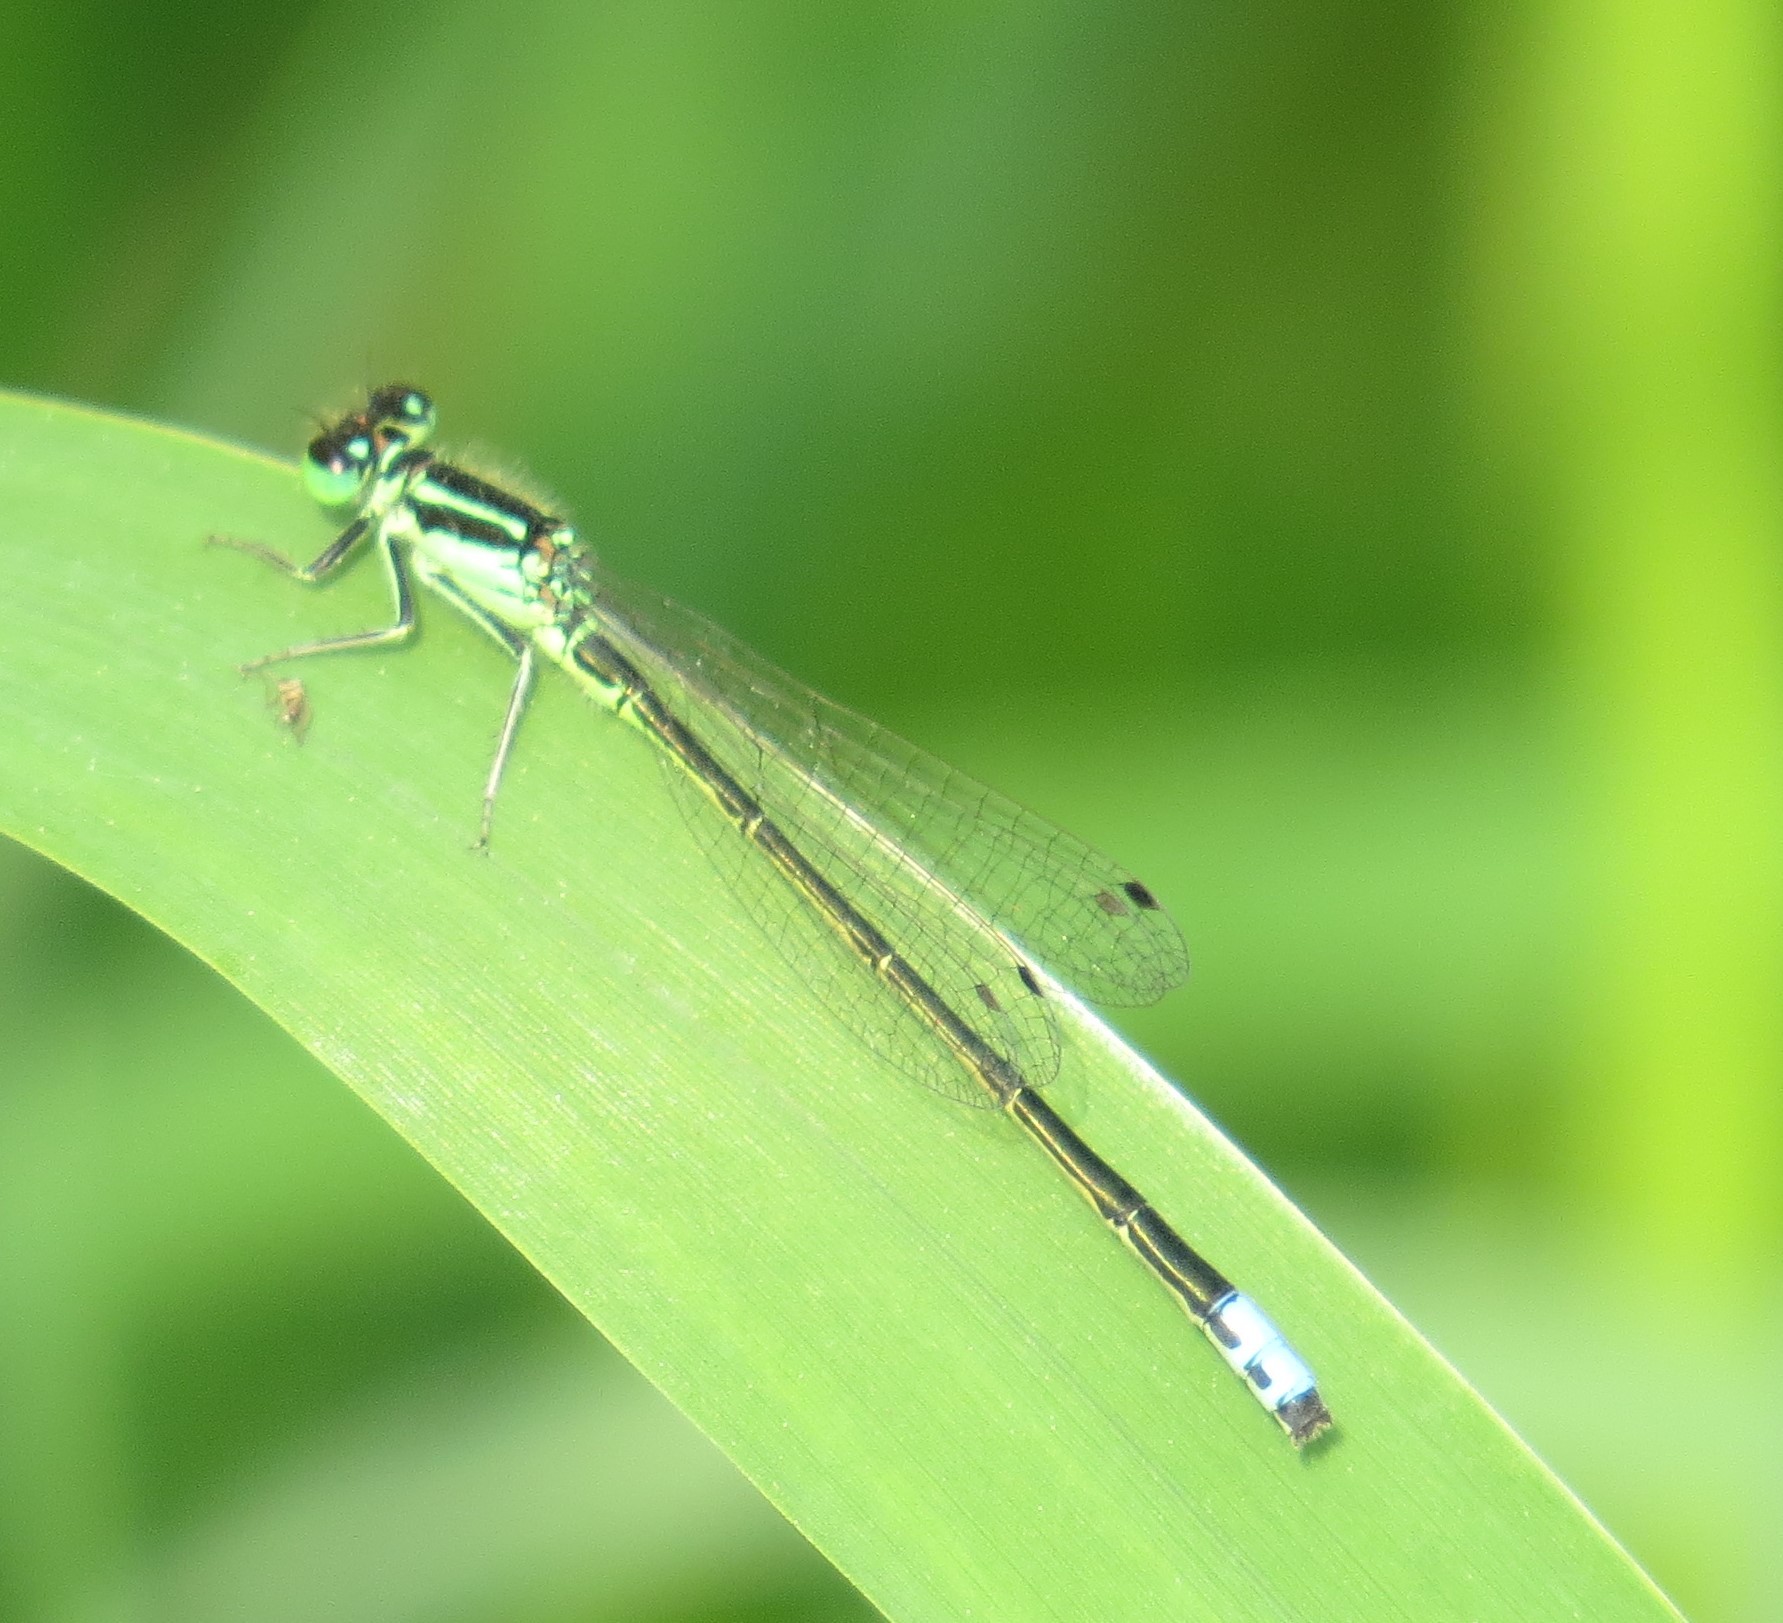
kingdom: Animalia
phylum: Arthropoda
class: Insecta
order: Odonata
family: Coenagrionidae
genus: Ischnura
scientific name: Ischnura verticalis
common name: Eastern forktail
